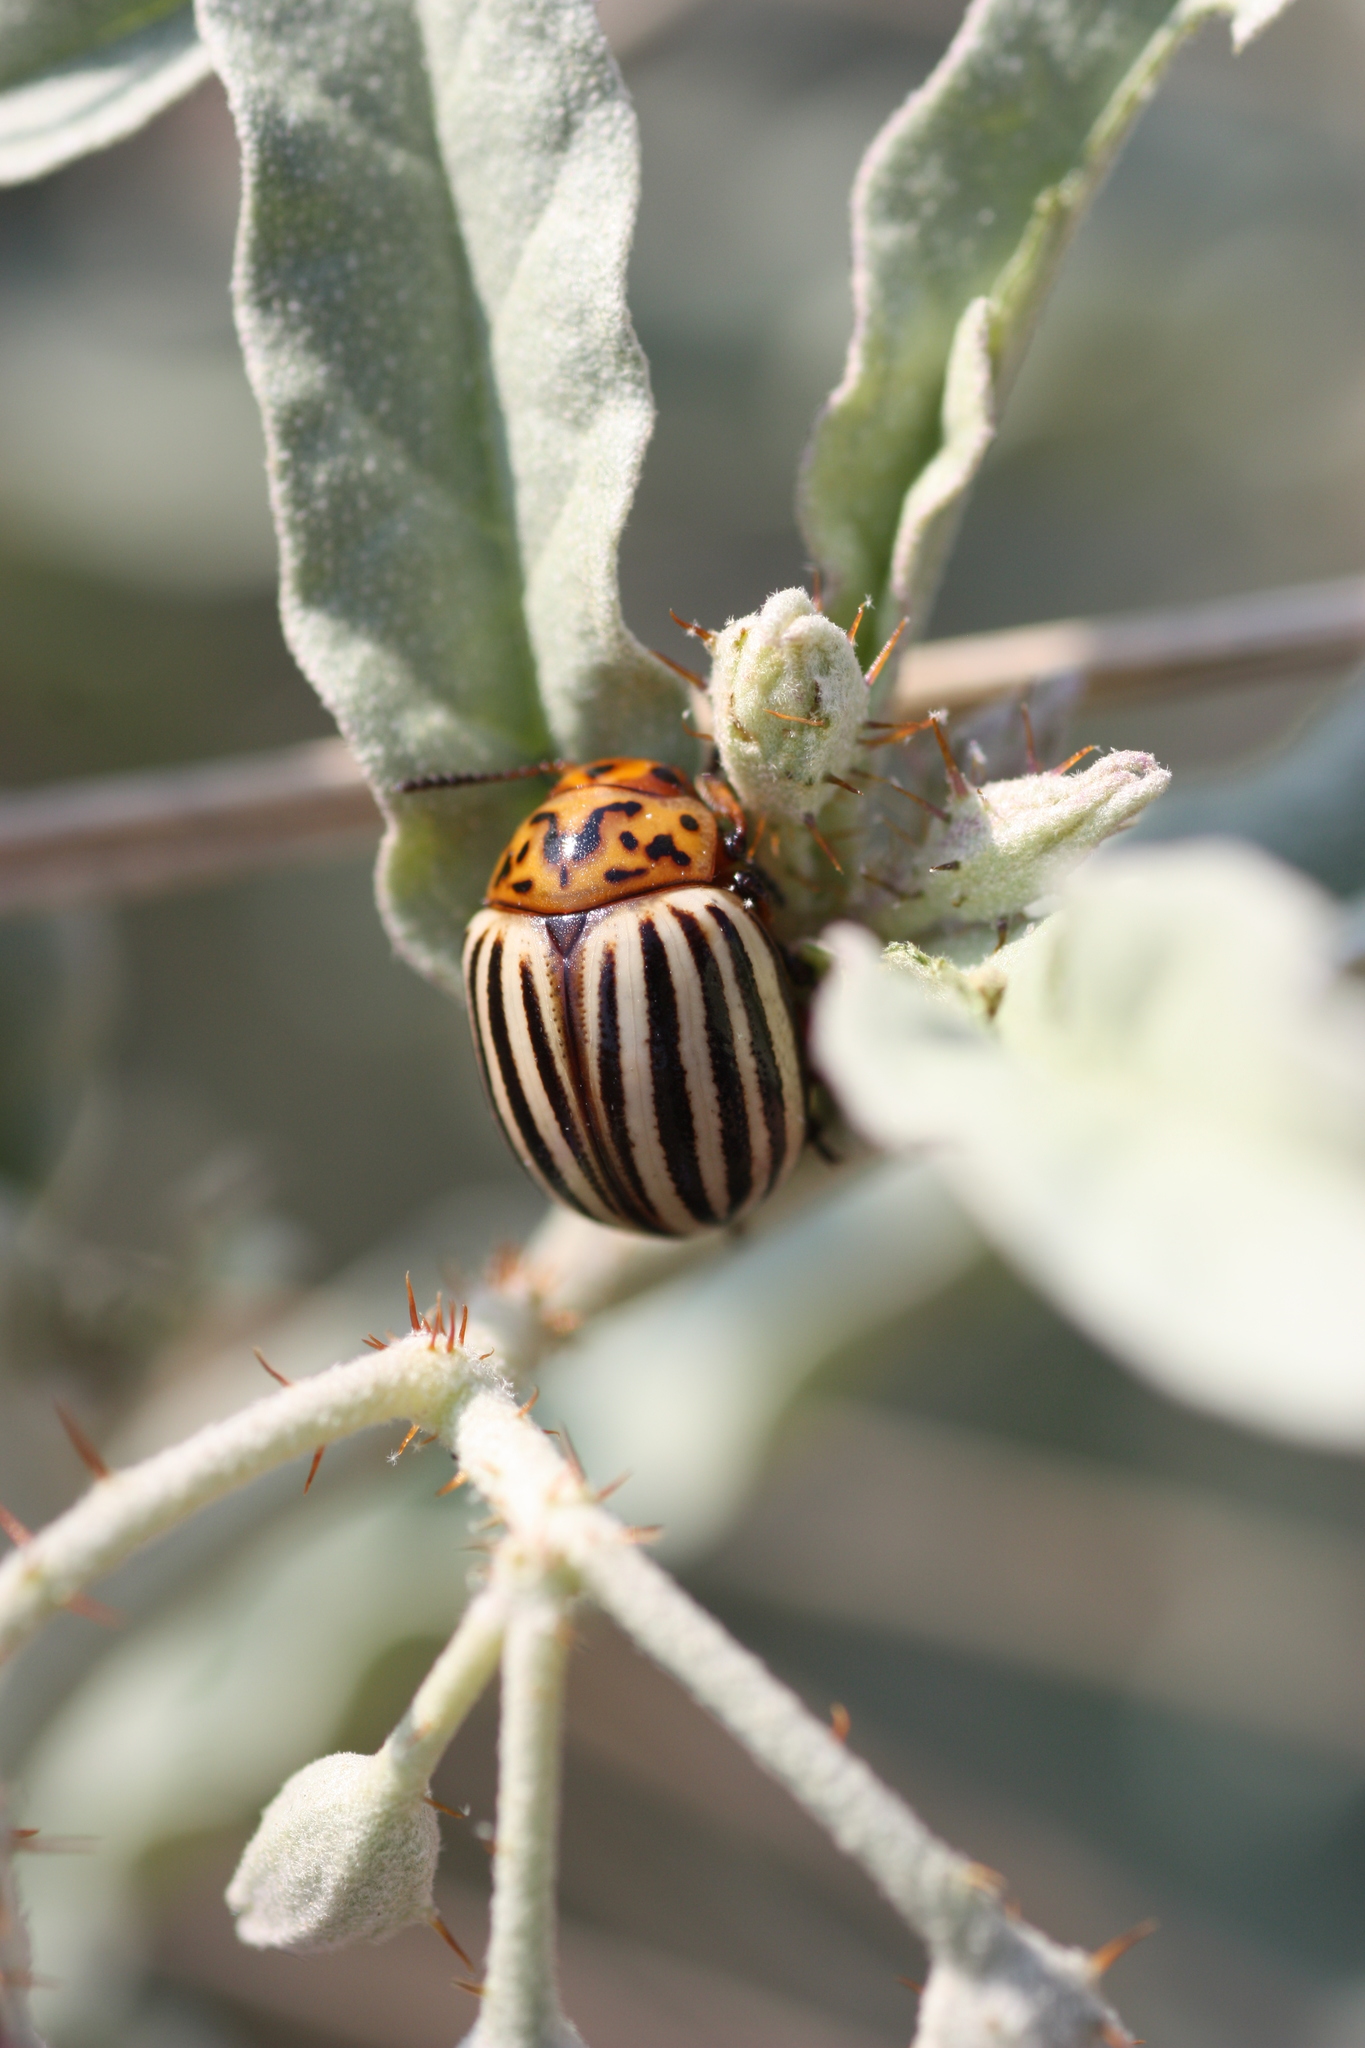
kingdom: Animalia
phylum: Arthropoda
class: Insecta
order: Coleoptera
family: Chrysomelidae
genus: Leptinotarsa
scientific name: Leptinotarsa decemlineata
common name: Colorado potato beetle
